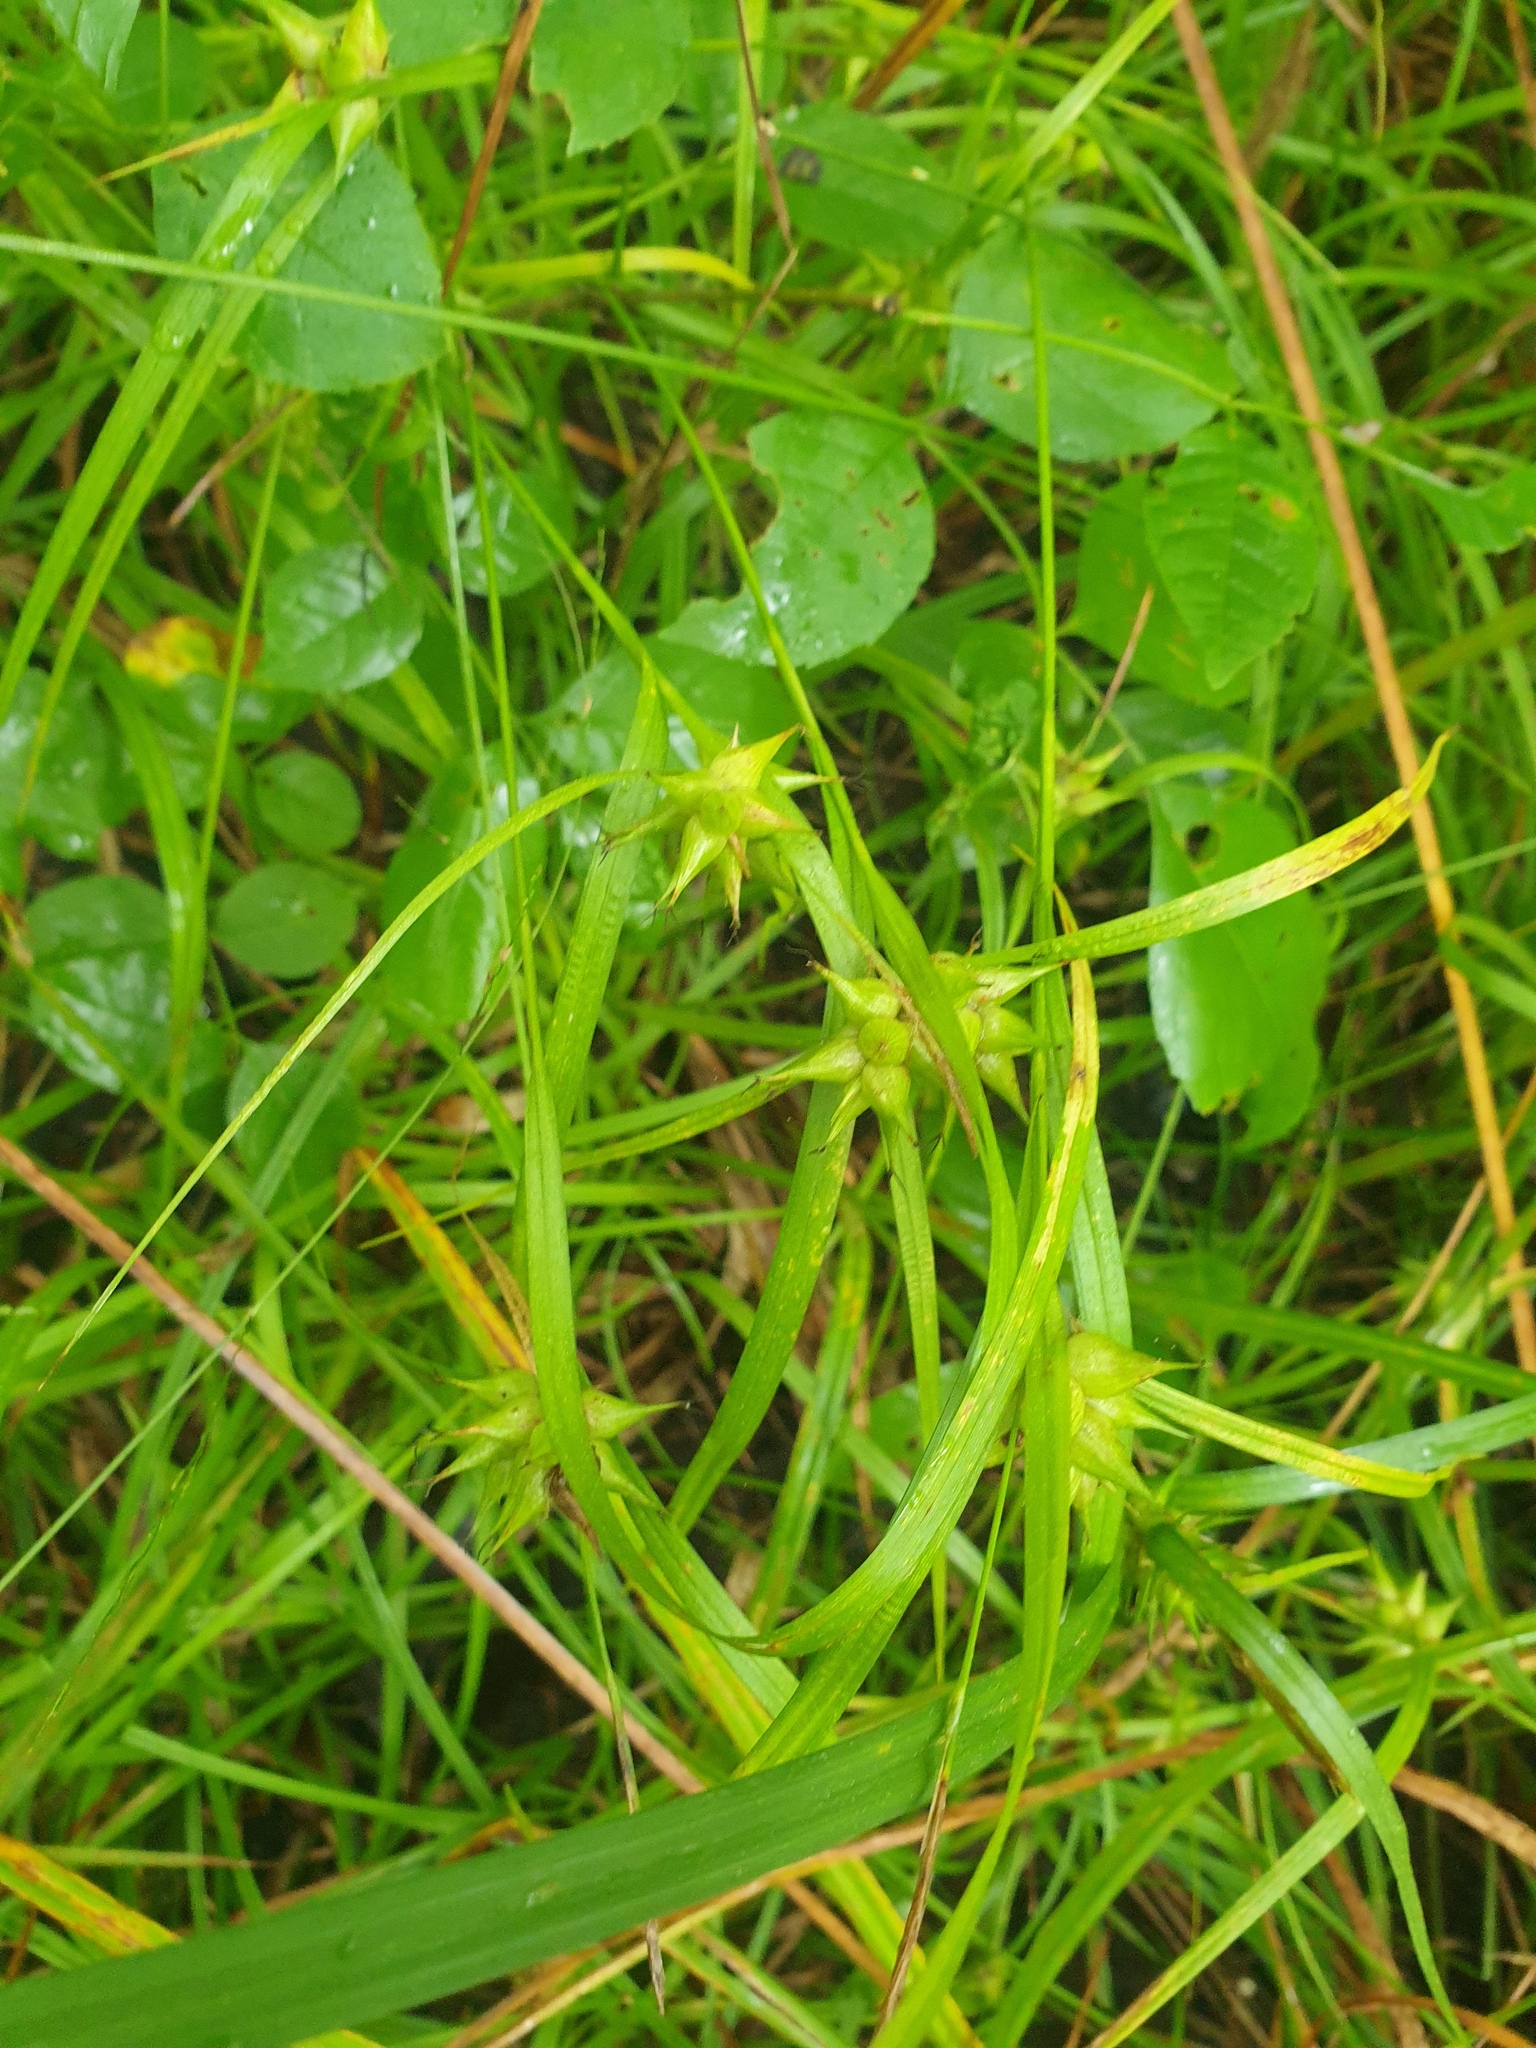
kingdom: Plantae
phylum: Tracheophyta
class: Liliopsida
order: Poales
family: Cyperaceae
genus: Carex
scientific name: Carex intumescens
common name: Greater bladder sedge
